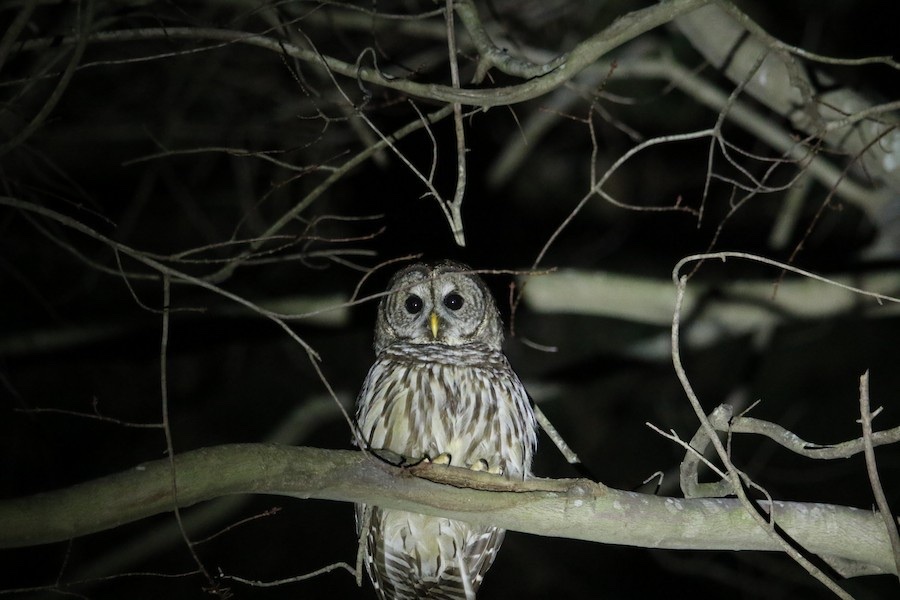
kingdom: Animalia
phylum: Chordata
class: Aves
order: Strigiformes
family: Strigidae
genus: Strix
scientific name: Strix varia
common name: Barred owl
